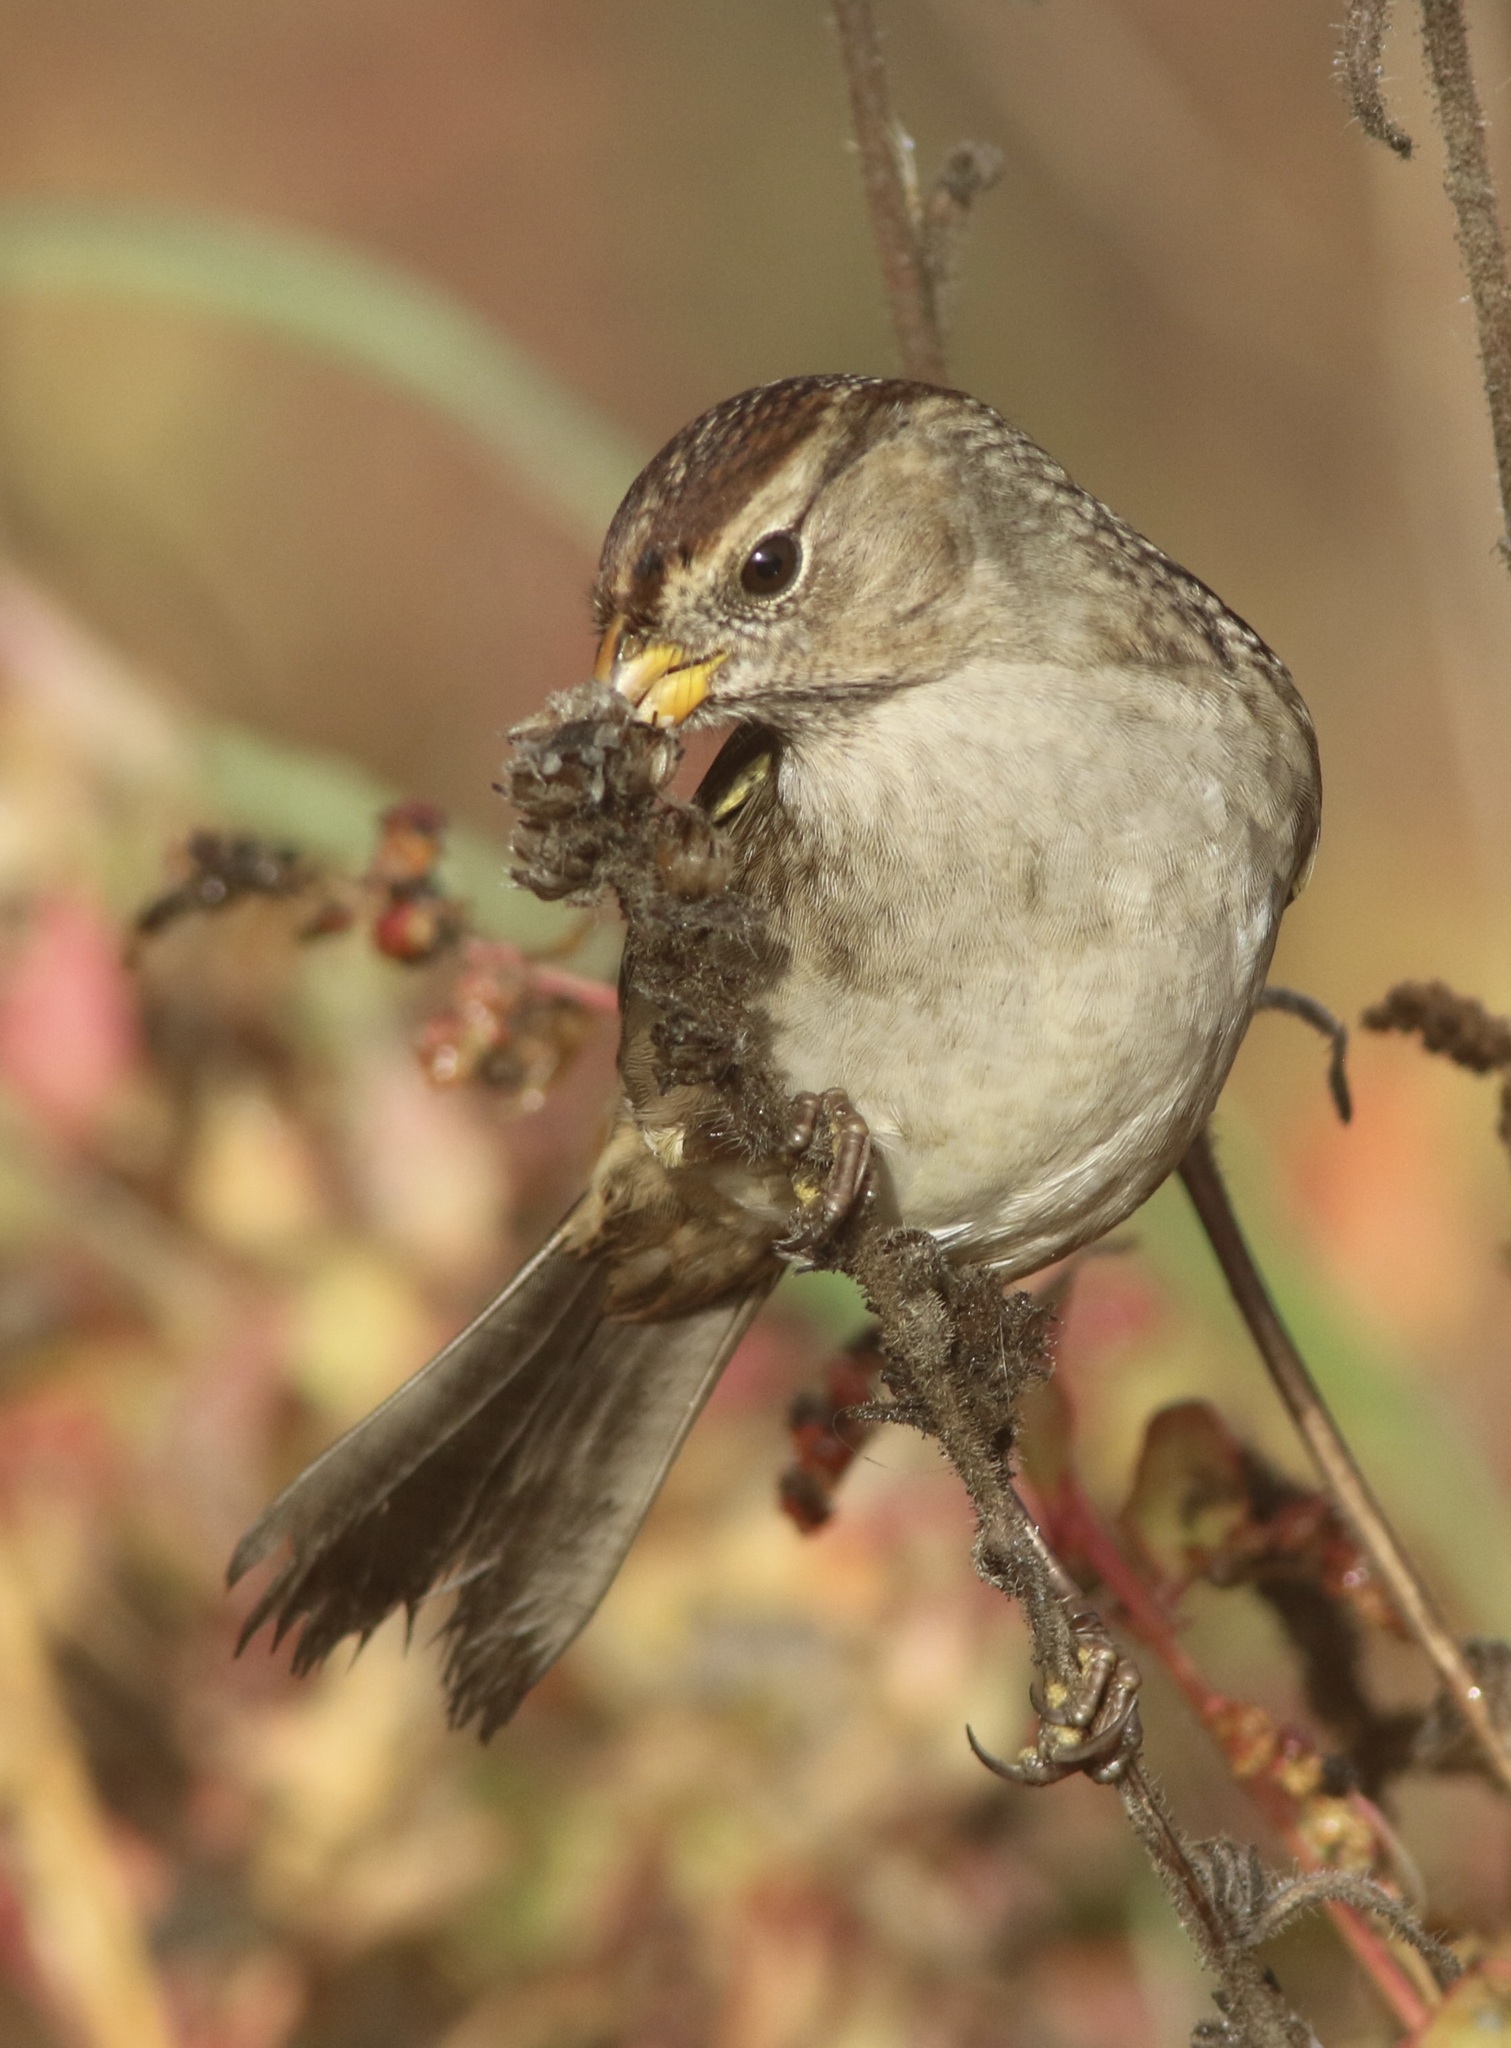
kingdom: Animalia
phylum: Chordata
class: Aves
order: Passeriformes
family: Passerellidae
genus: Zonotrichia
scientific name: Zonotrichia leucophrys
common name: White-crowned sparrow
